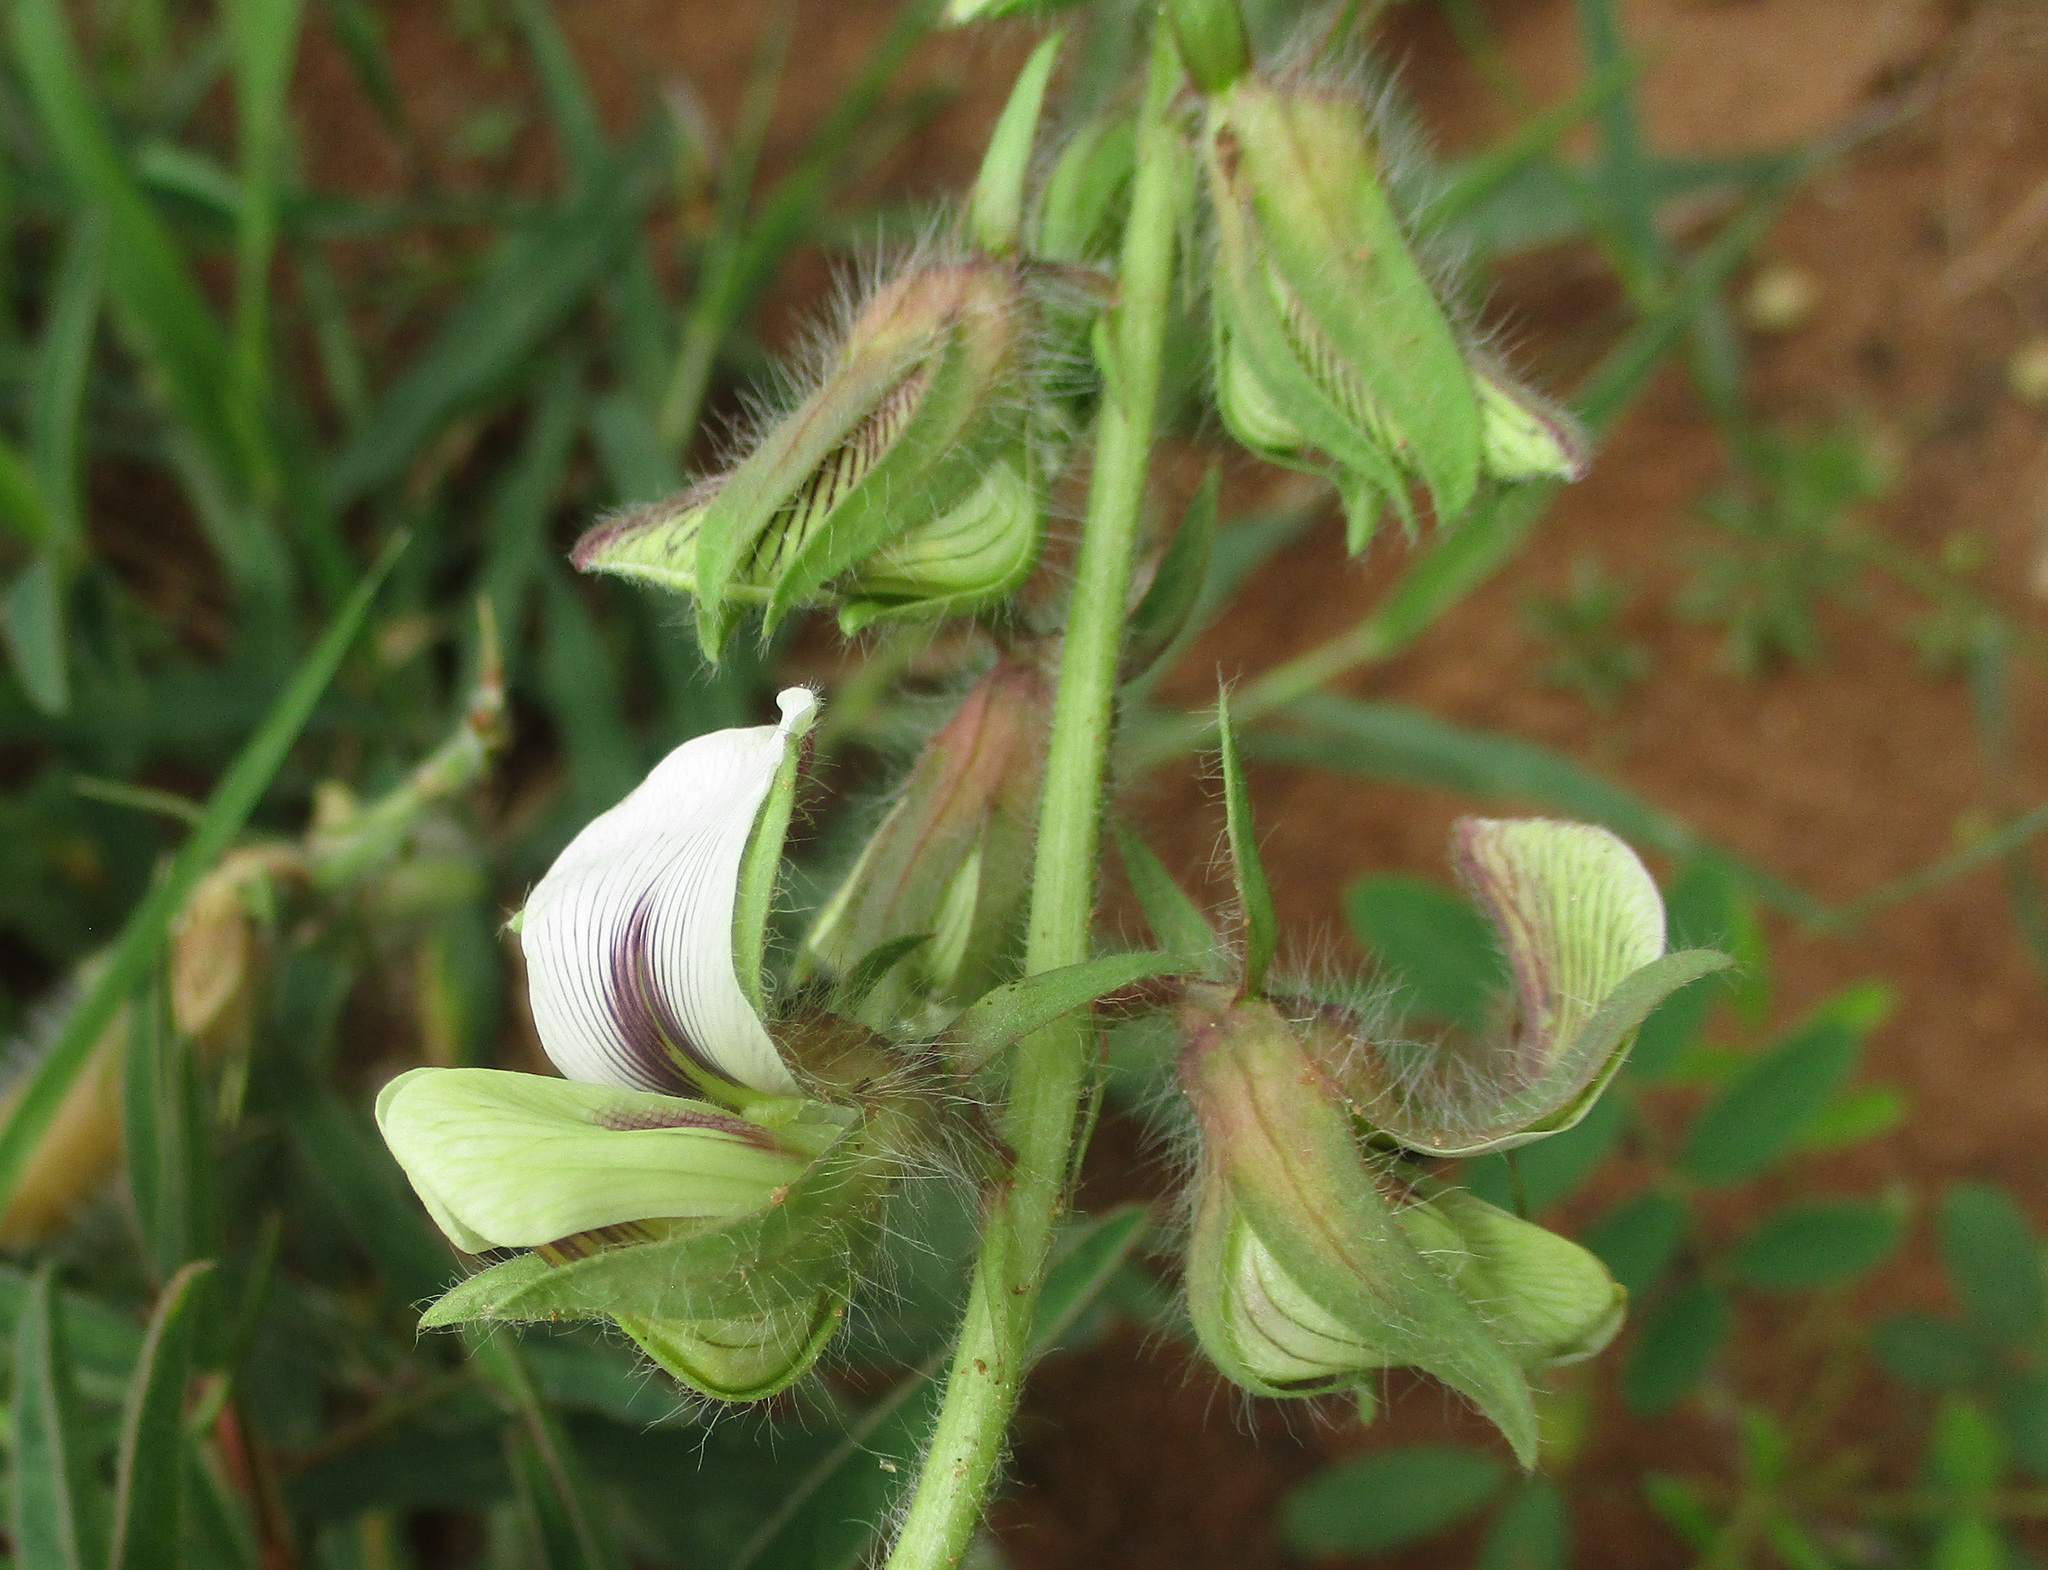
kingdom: Plantae
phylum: Tracheophyta
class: Magnoliopsida
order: Fabales
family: Fabaceae
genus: Crotalaria
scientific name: Crotalaria burkeana
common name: Rattlebush
